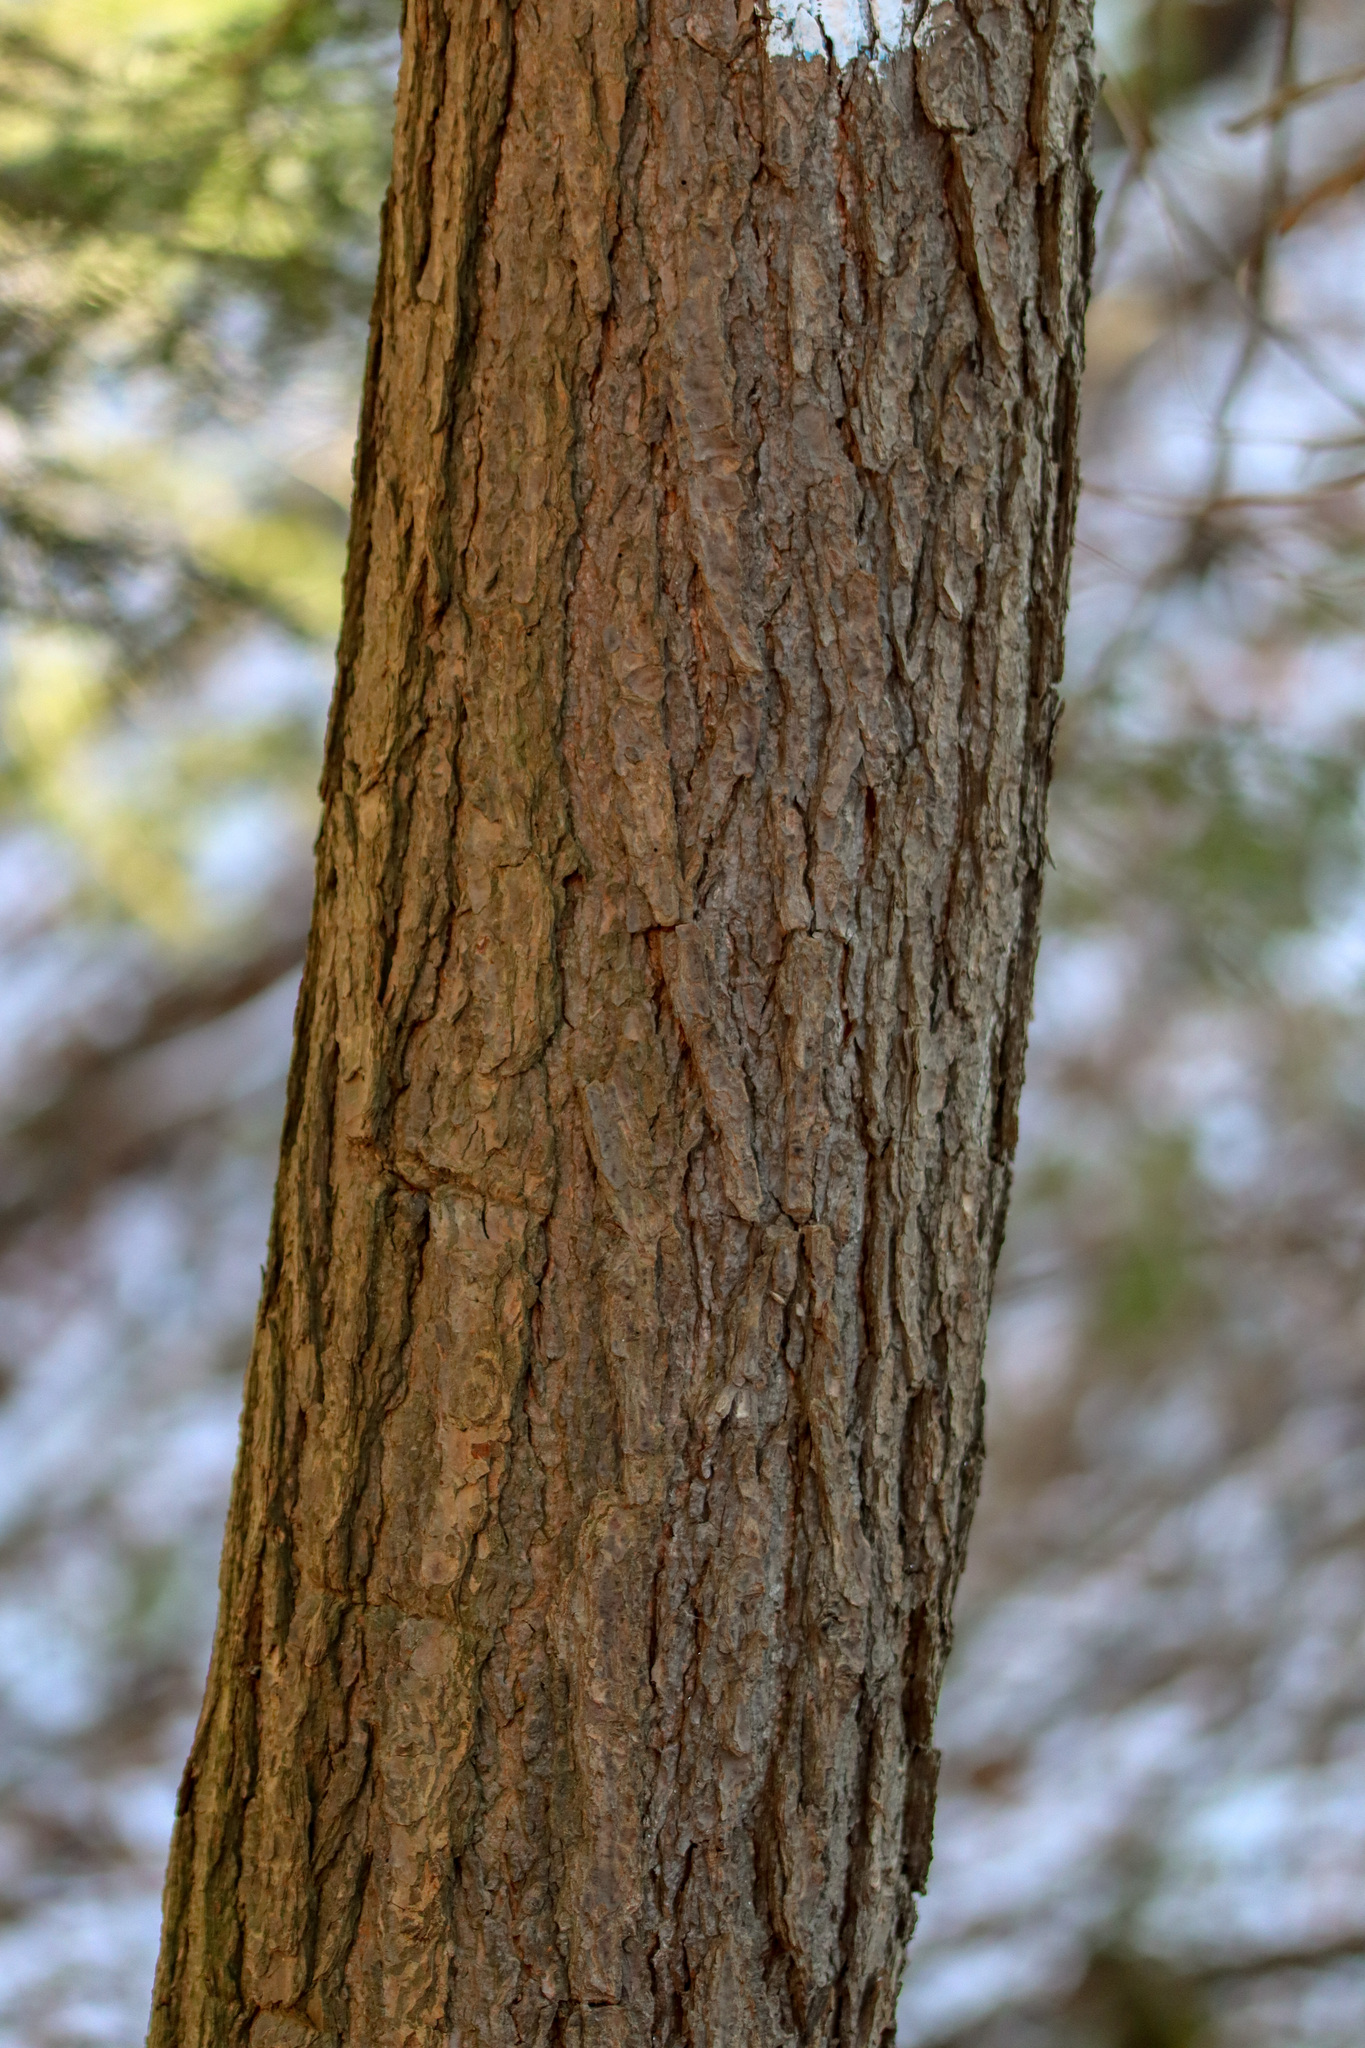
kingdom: Plantae
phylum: Tracheophyta
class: Pinopsida
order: Pinales
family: Pinaceae
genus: Tsuga
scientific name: Tsuga canadensis
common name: Eastern hemlock
